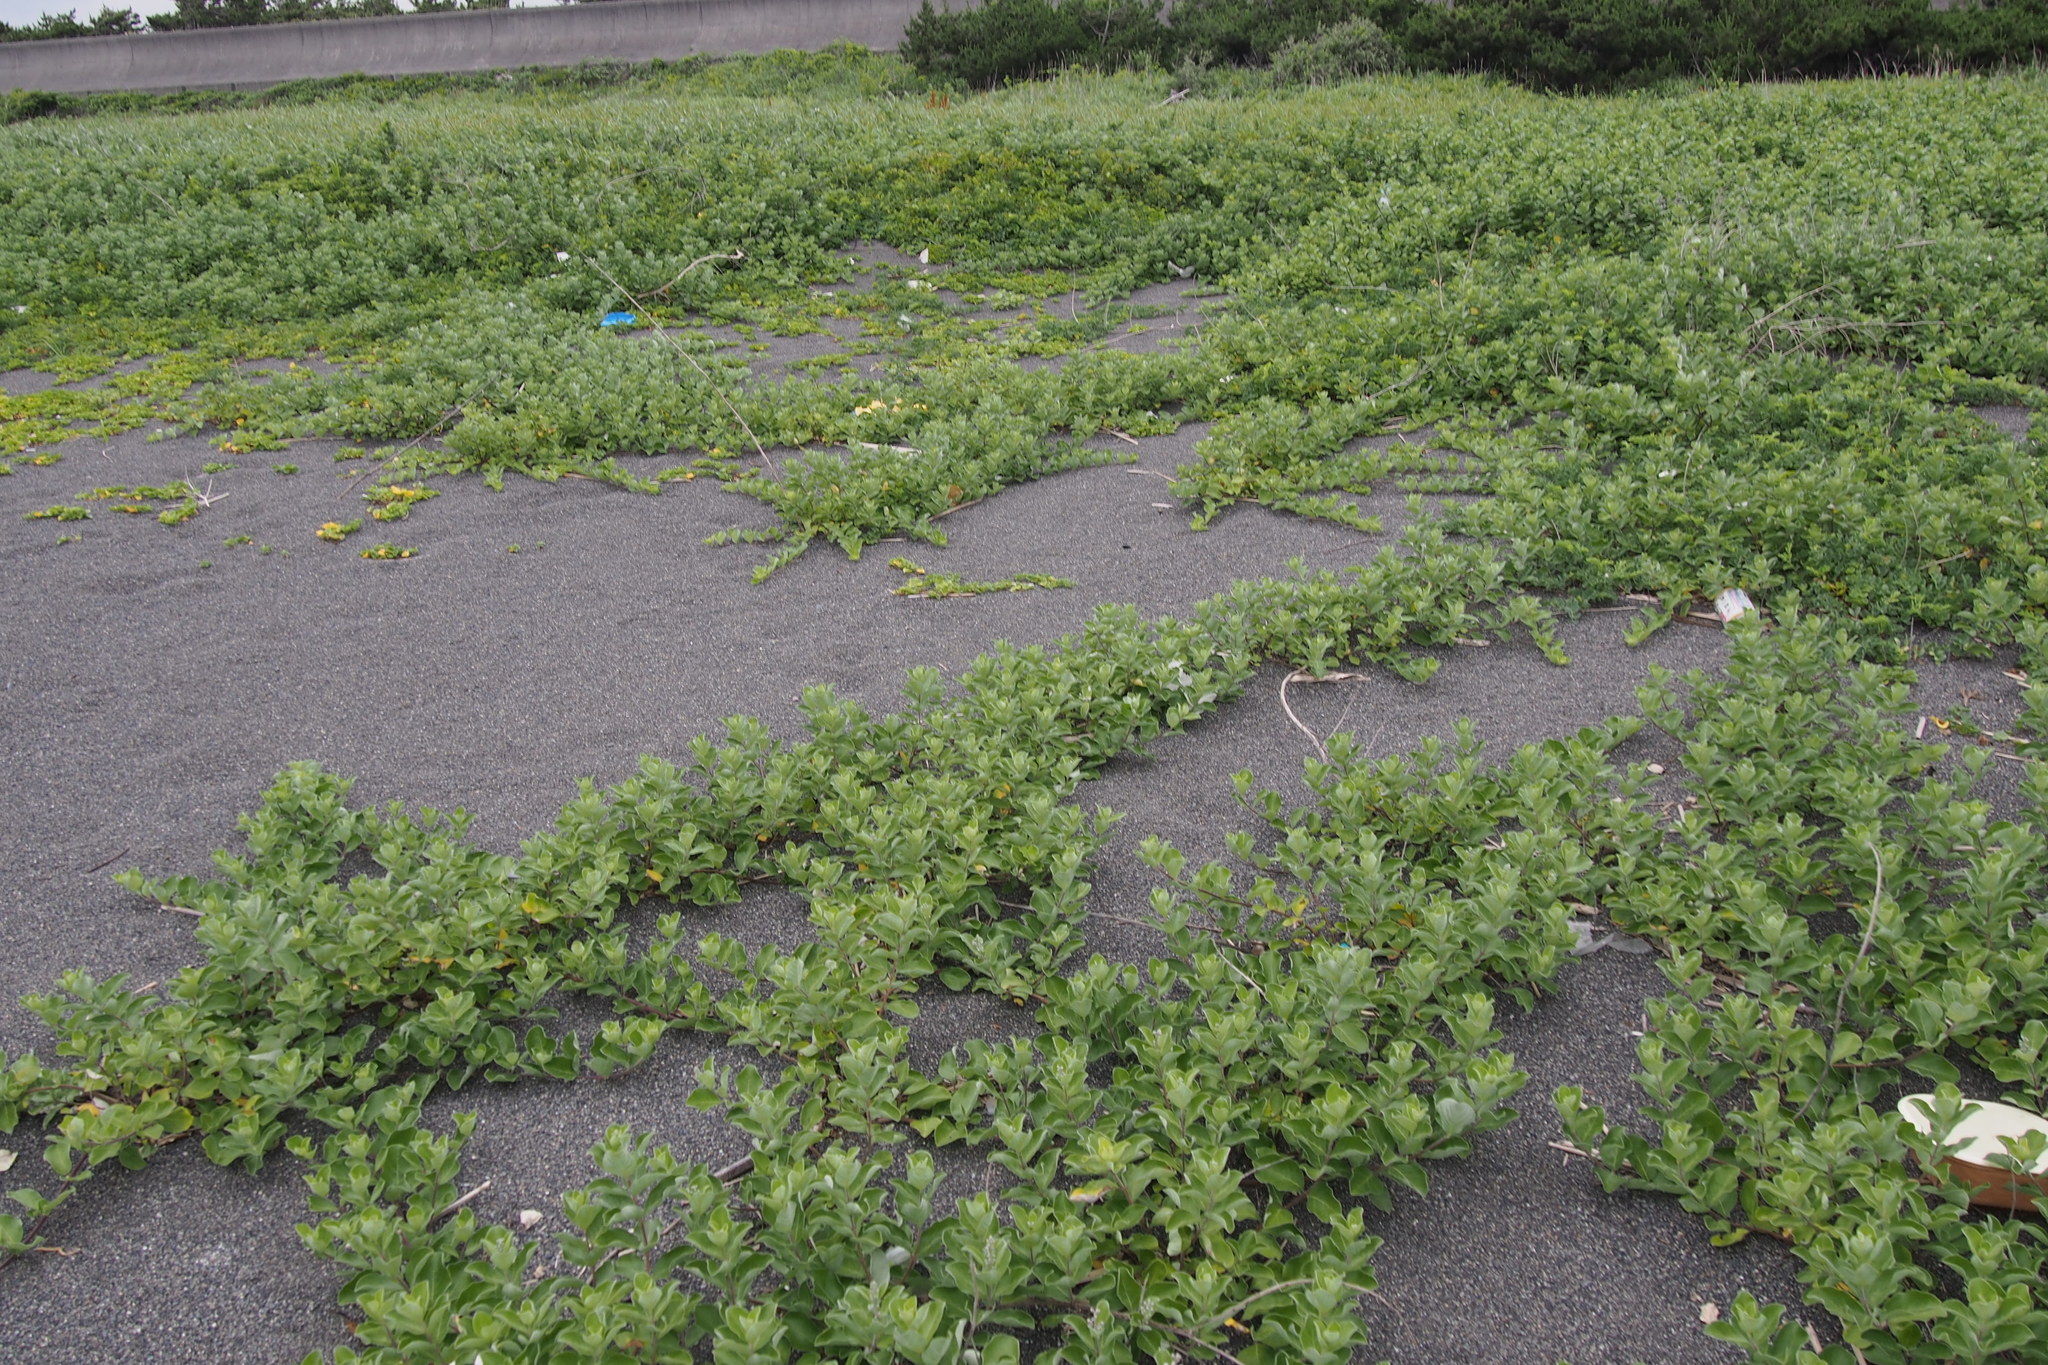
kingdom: Plantae
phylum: Tracheophyta
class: Magnoliopsida
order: Lamiales
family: Lamiaceae
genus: Vitex
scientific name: Vitex rotundifolia
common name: Beach vitex
